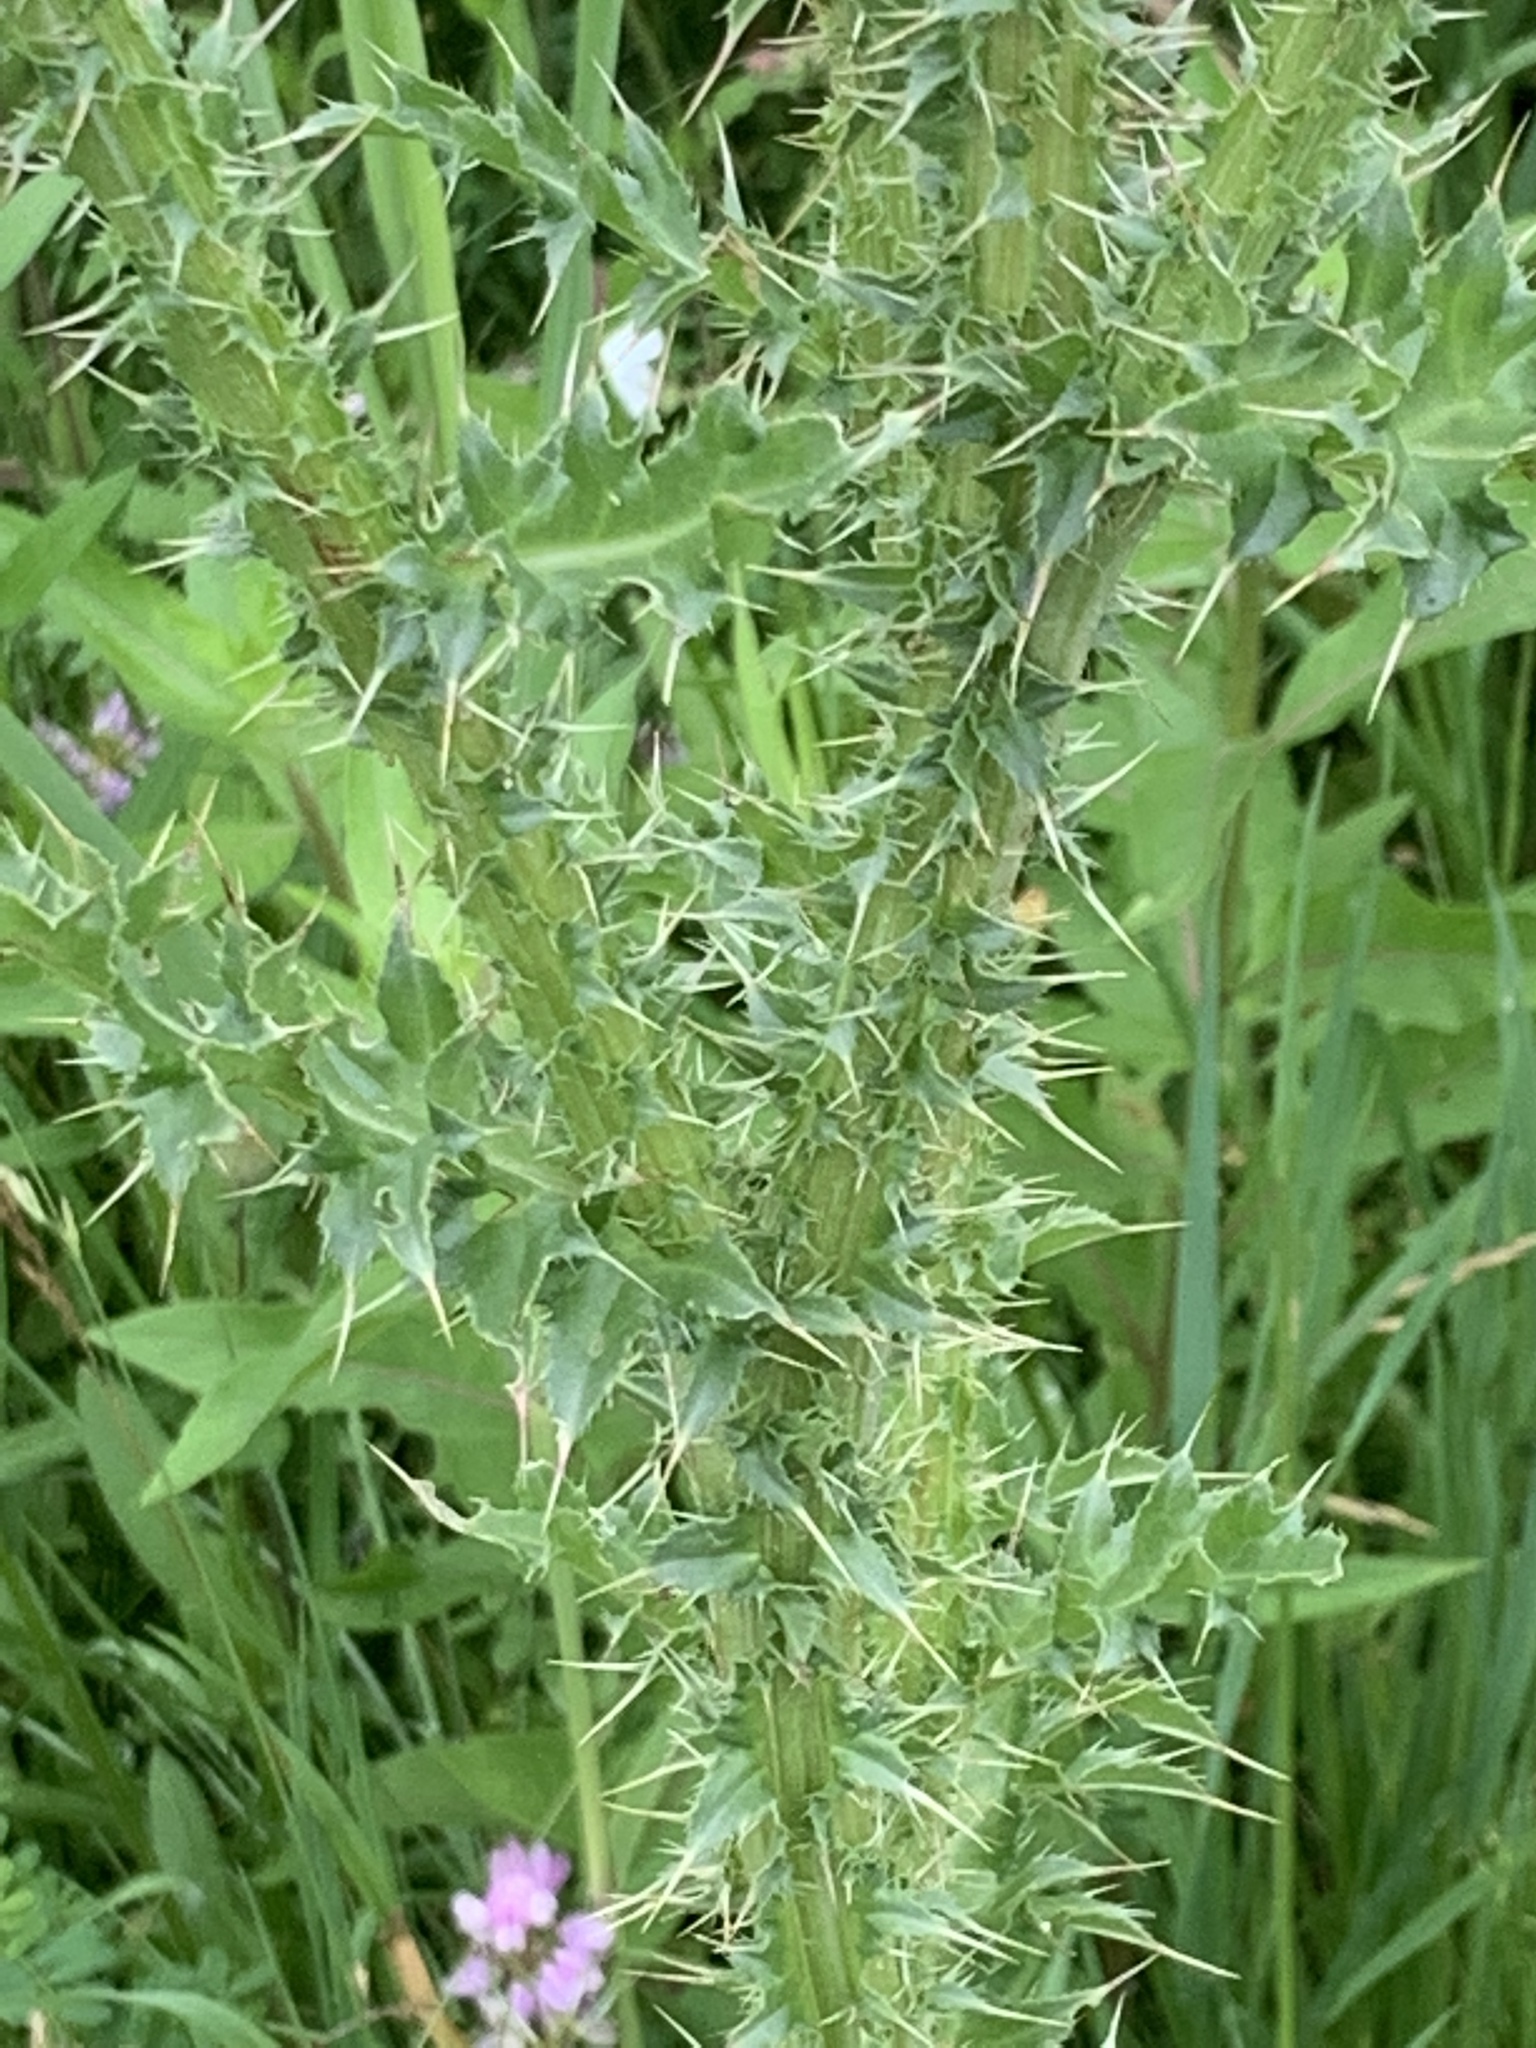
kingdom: Plantae
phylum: Tracheophyta
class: Magnoliopsida
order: Asterales
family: Asteraceae
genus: Carduus
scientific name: Carduus nutans
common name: Musk thistle
